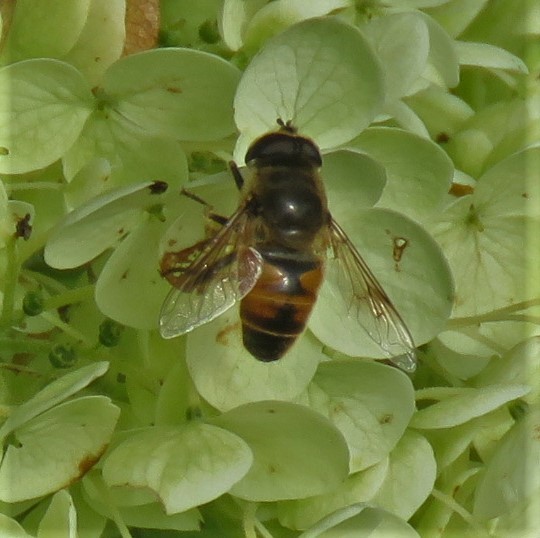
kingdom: Animalia
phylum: Arthropoda
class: Insecta
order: Diptera
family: Syrphidae
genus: Eristalis
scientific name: Eristalis tenax
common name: Drone fly
